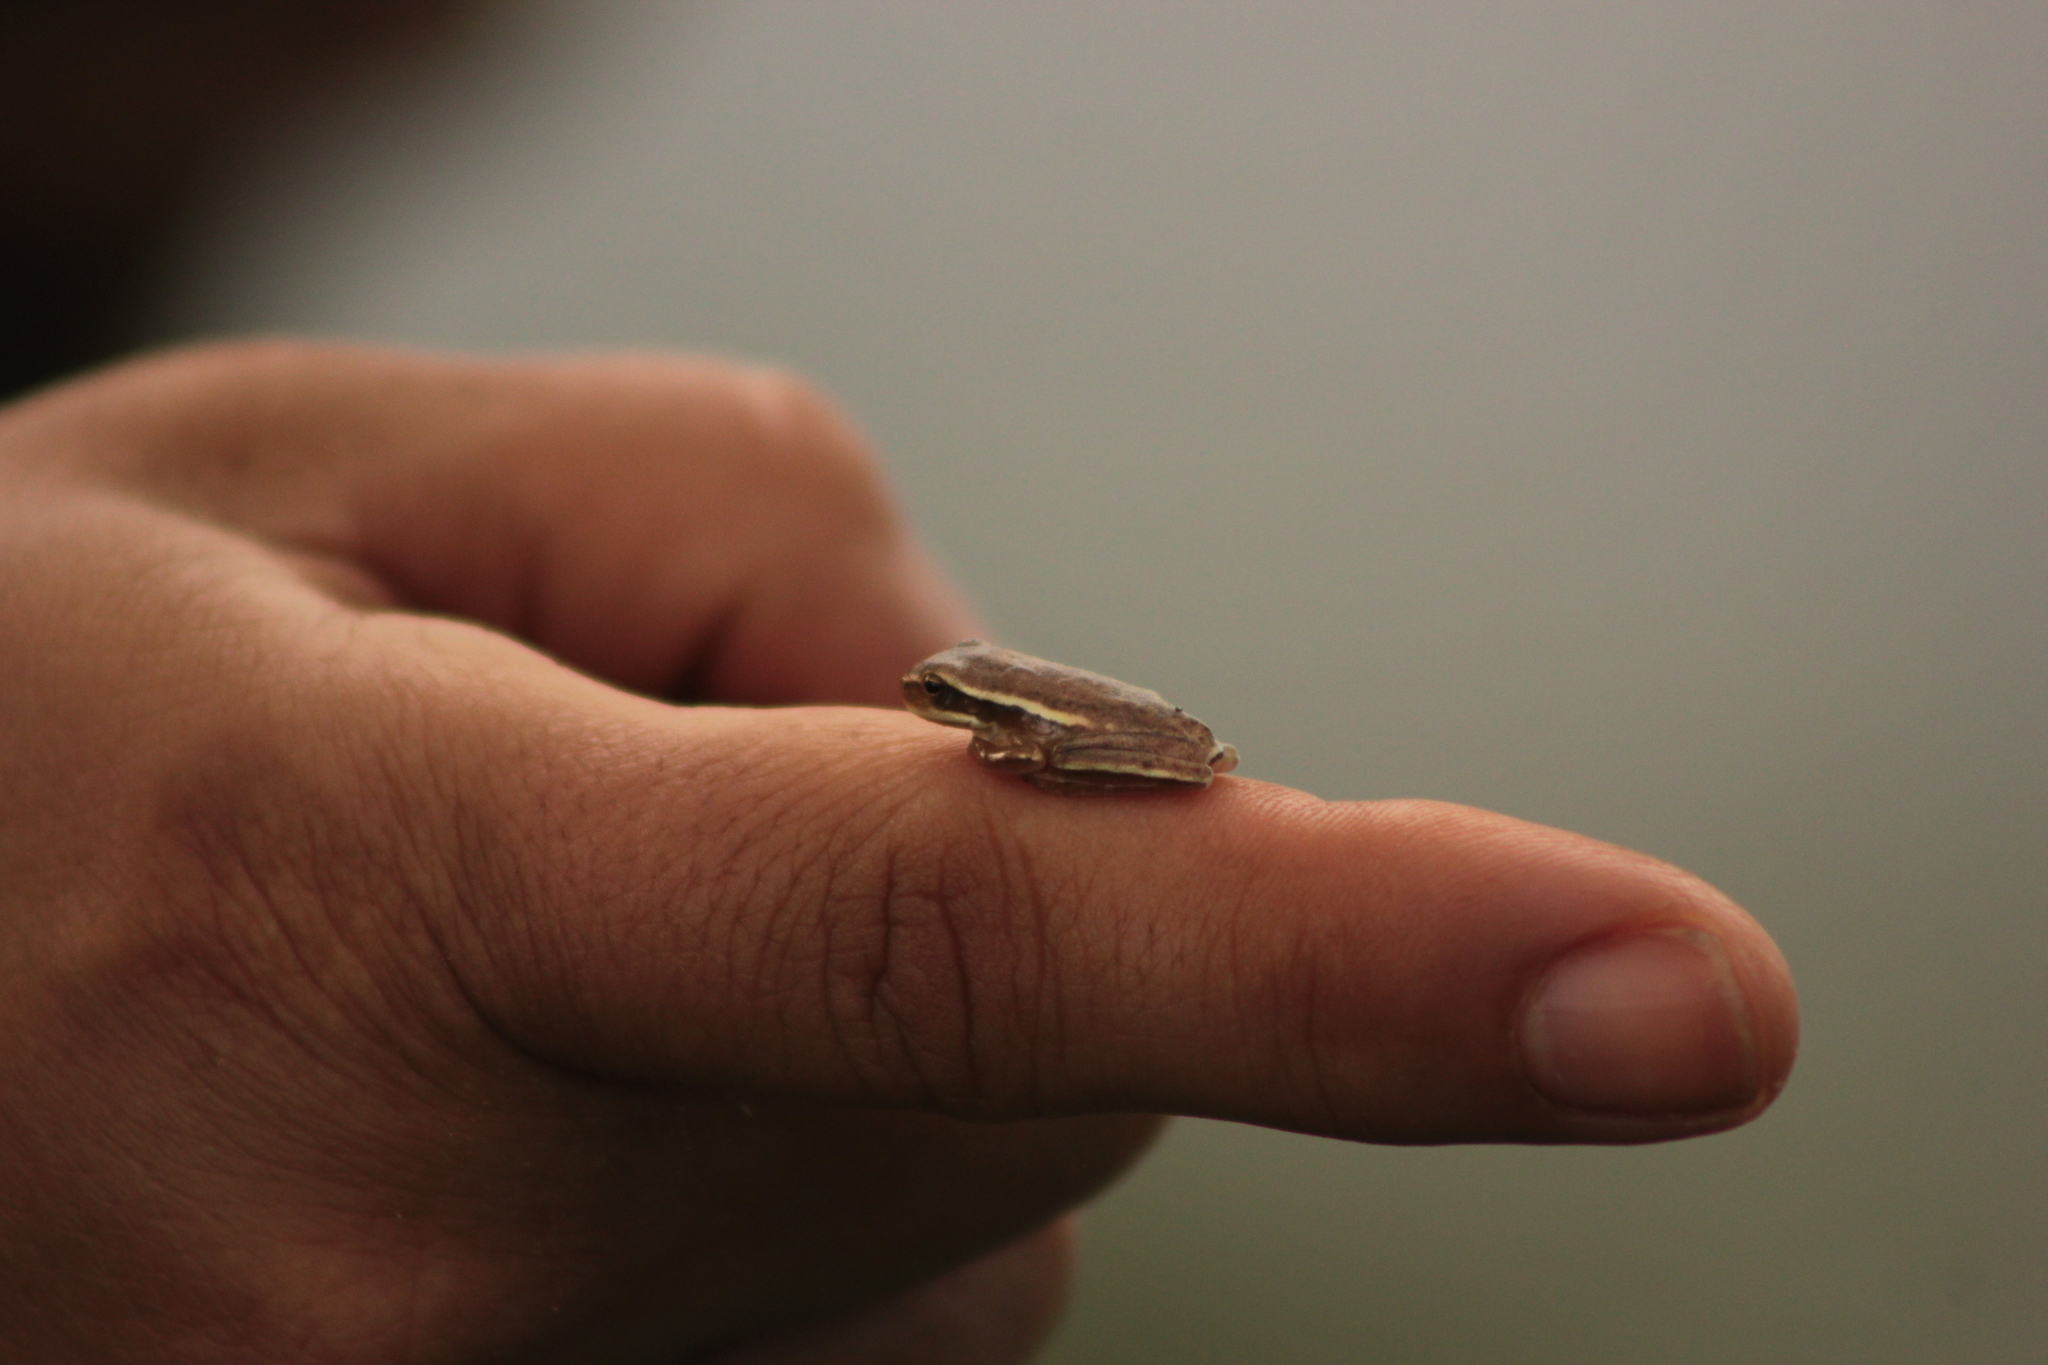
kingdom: Animalia
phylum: Chordata
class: Amphibia
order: Anura
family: Hylidae
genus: Boana
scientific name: Boana pulchella
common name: Montevideo treefrog
